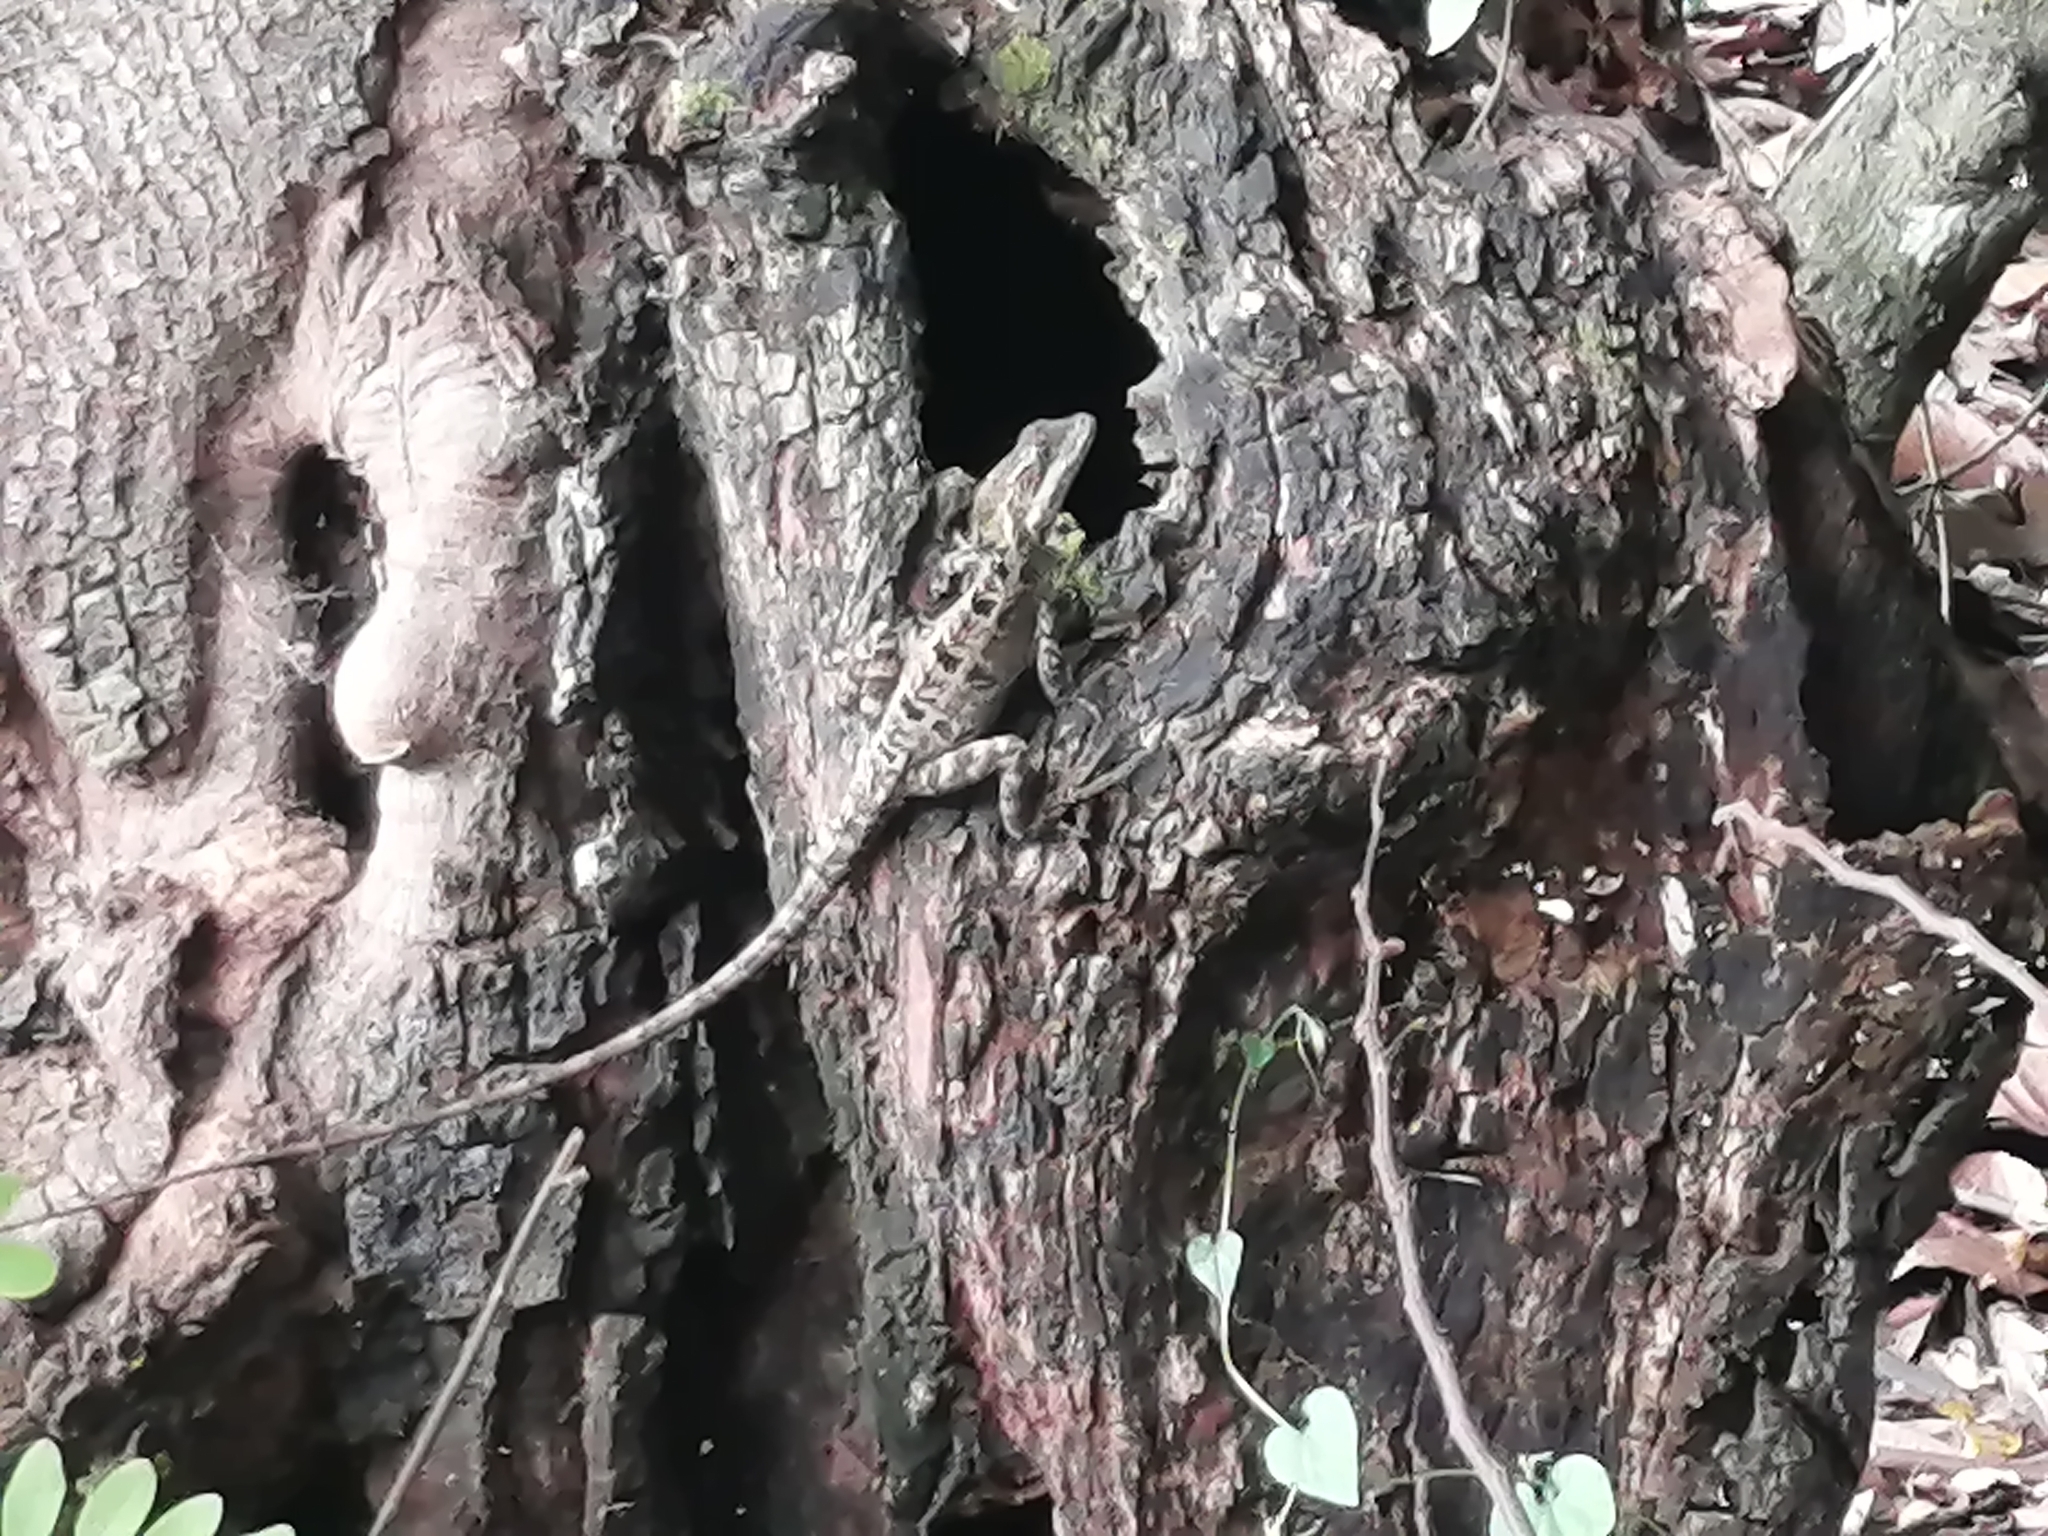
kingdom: Animalia
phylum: Chordata
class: Squamata
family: Corytophanidae
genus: Basiliscus
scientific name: Basiliscus vittatus
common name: Brown basilisk
